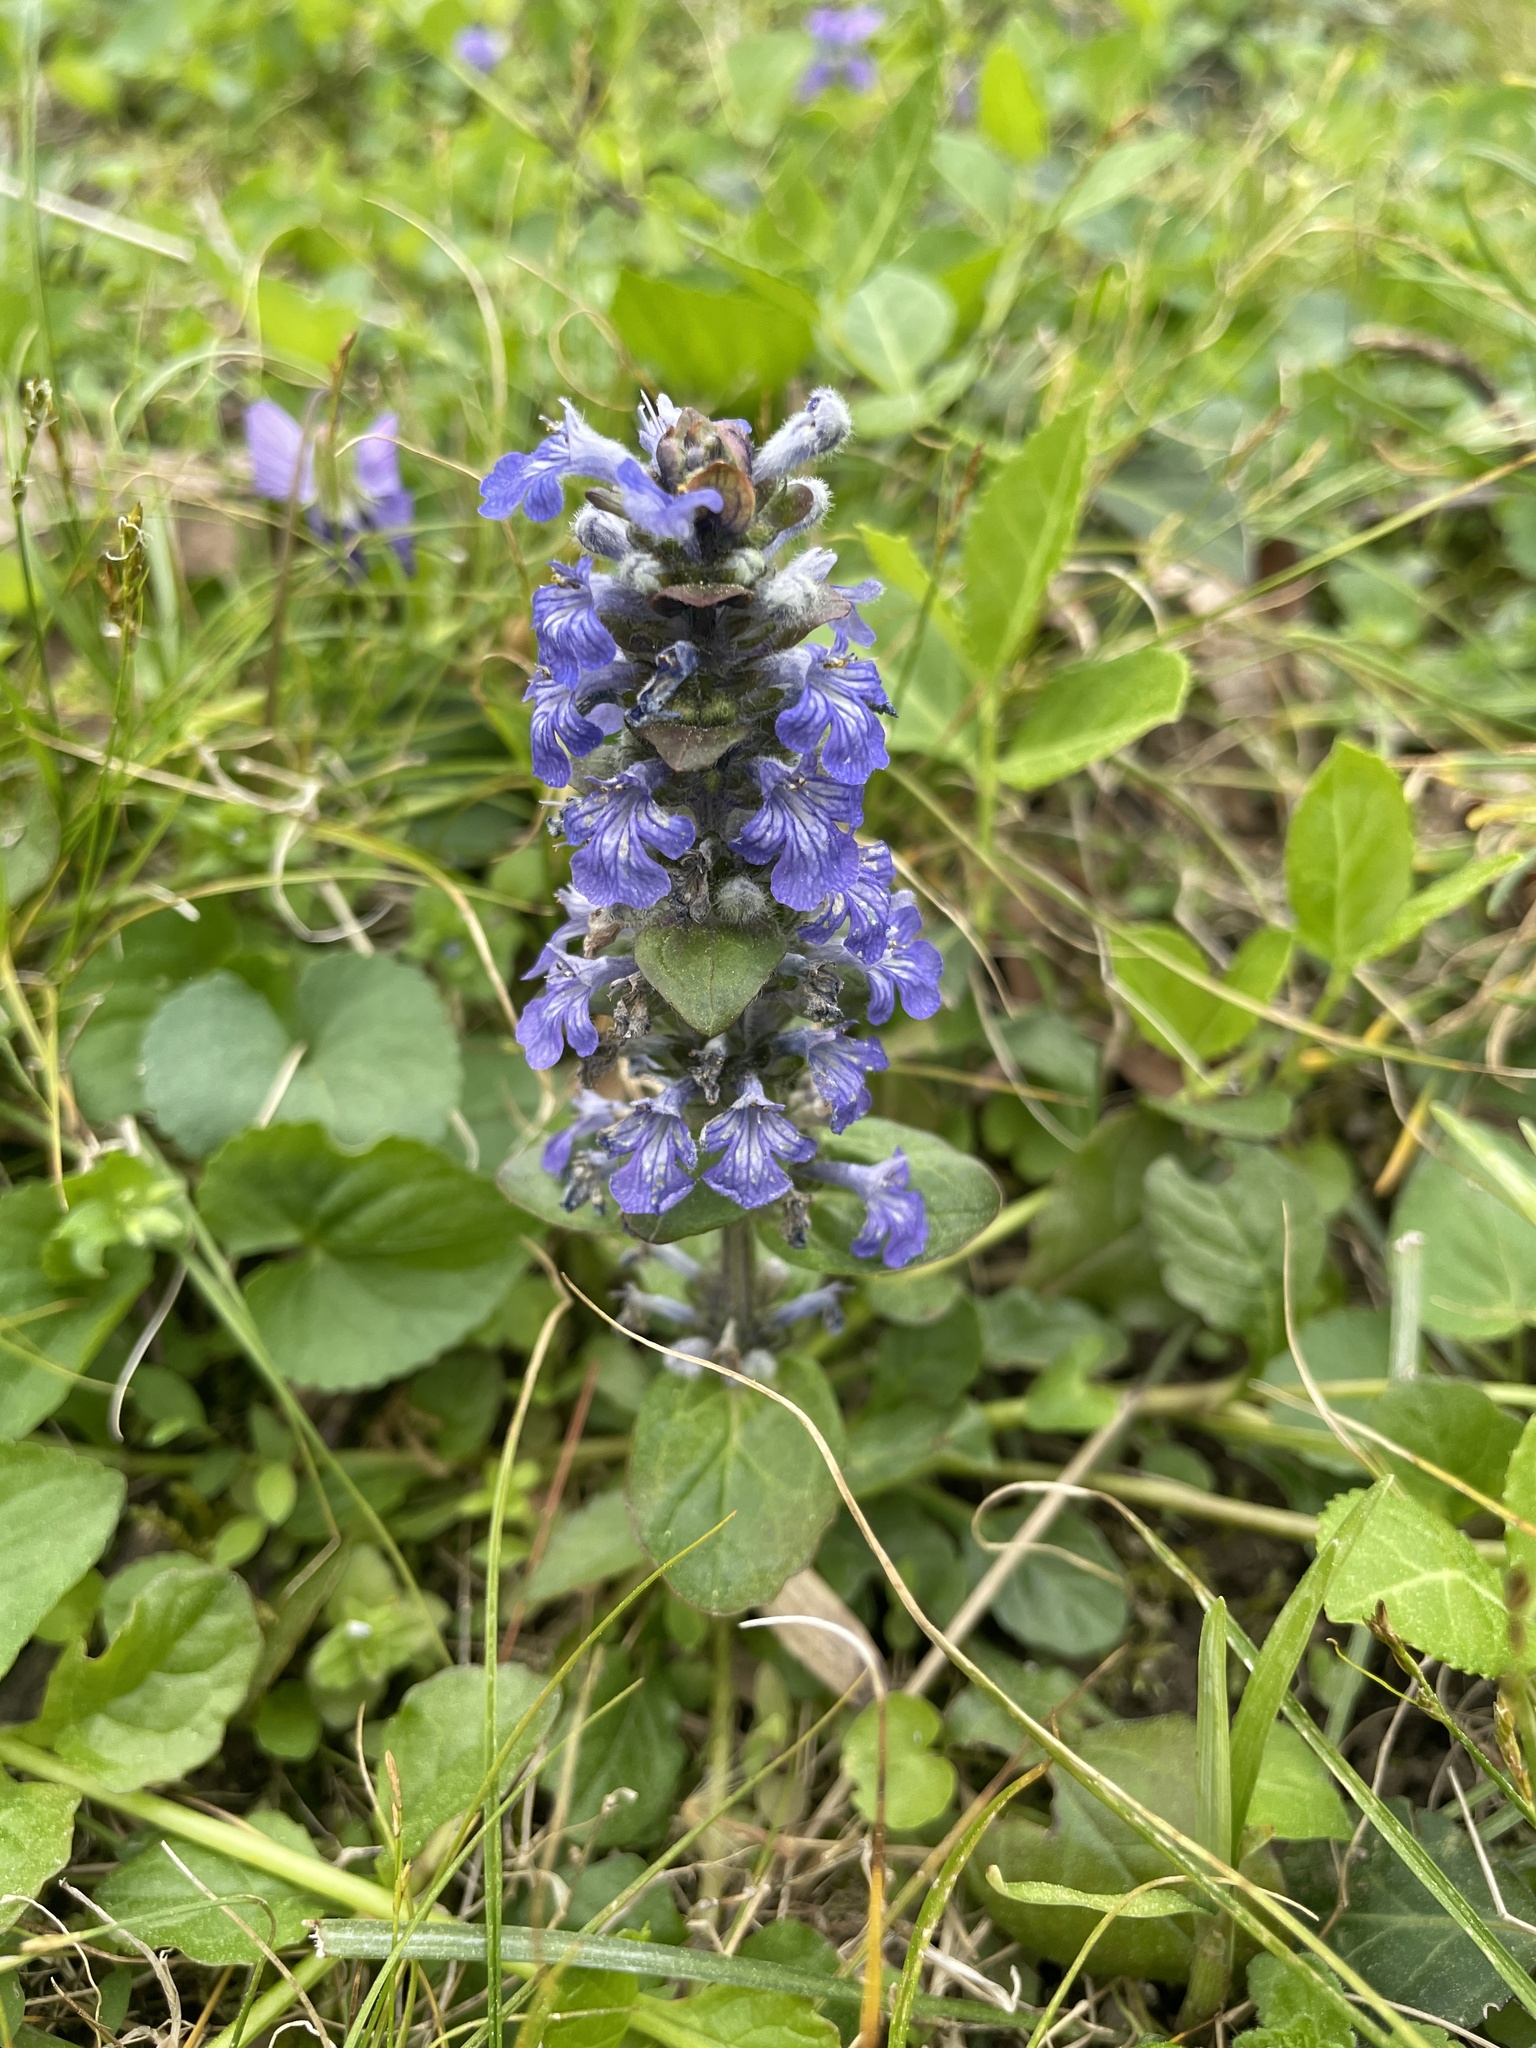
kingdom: Plantae
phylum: Tracheophyta
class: Magnoliopsida
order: Lamiales
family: Lamiaceae
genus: Ajuga
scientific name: Ajuga reptans
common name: Bugle
